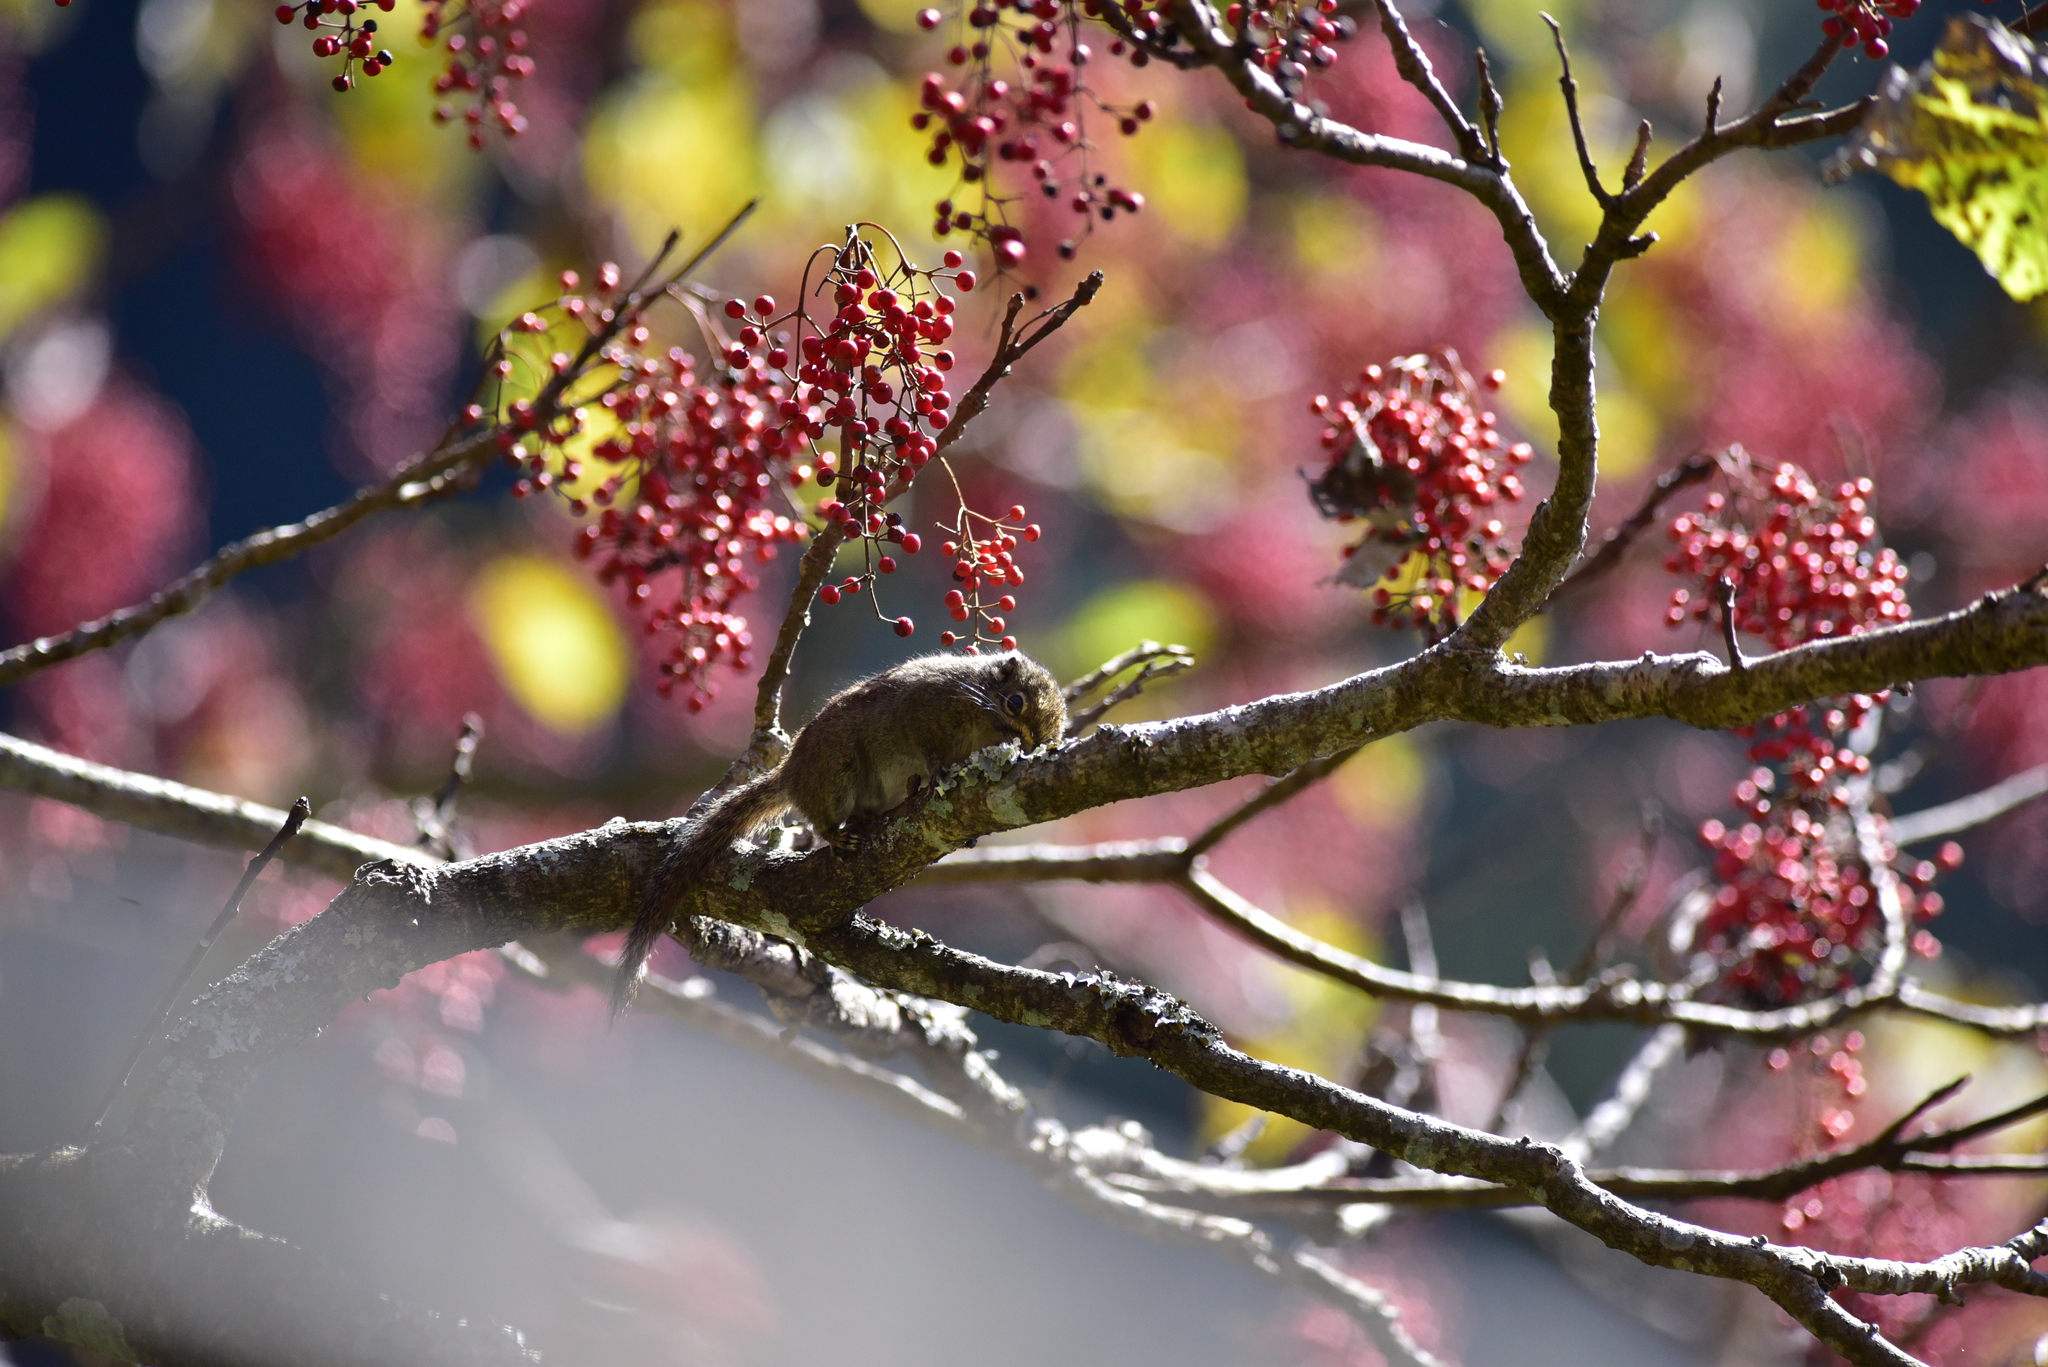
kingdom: Animalia
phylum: Chordata
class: Mammalia
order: Rodentia
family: Sciuridae
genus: Tamiops
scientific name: Tamiops maritimus
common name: Maritime striped squirrel
